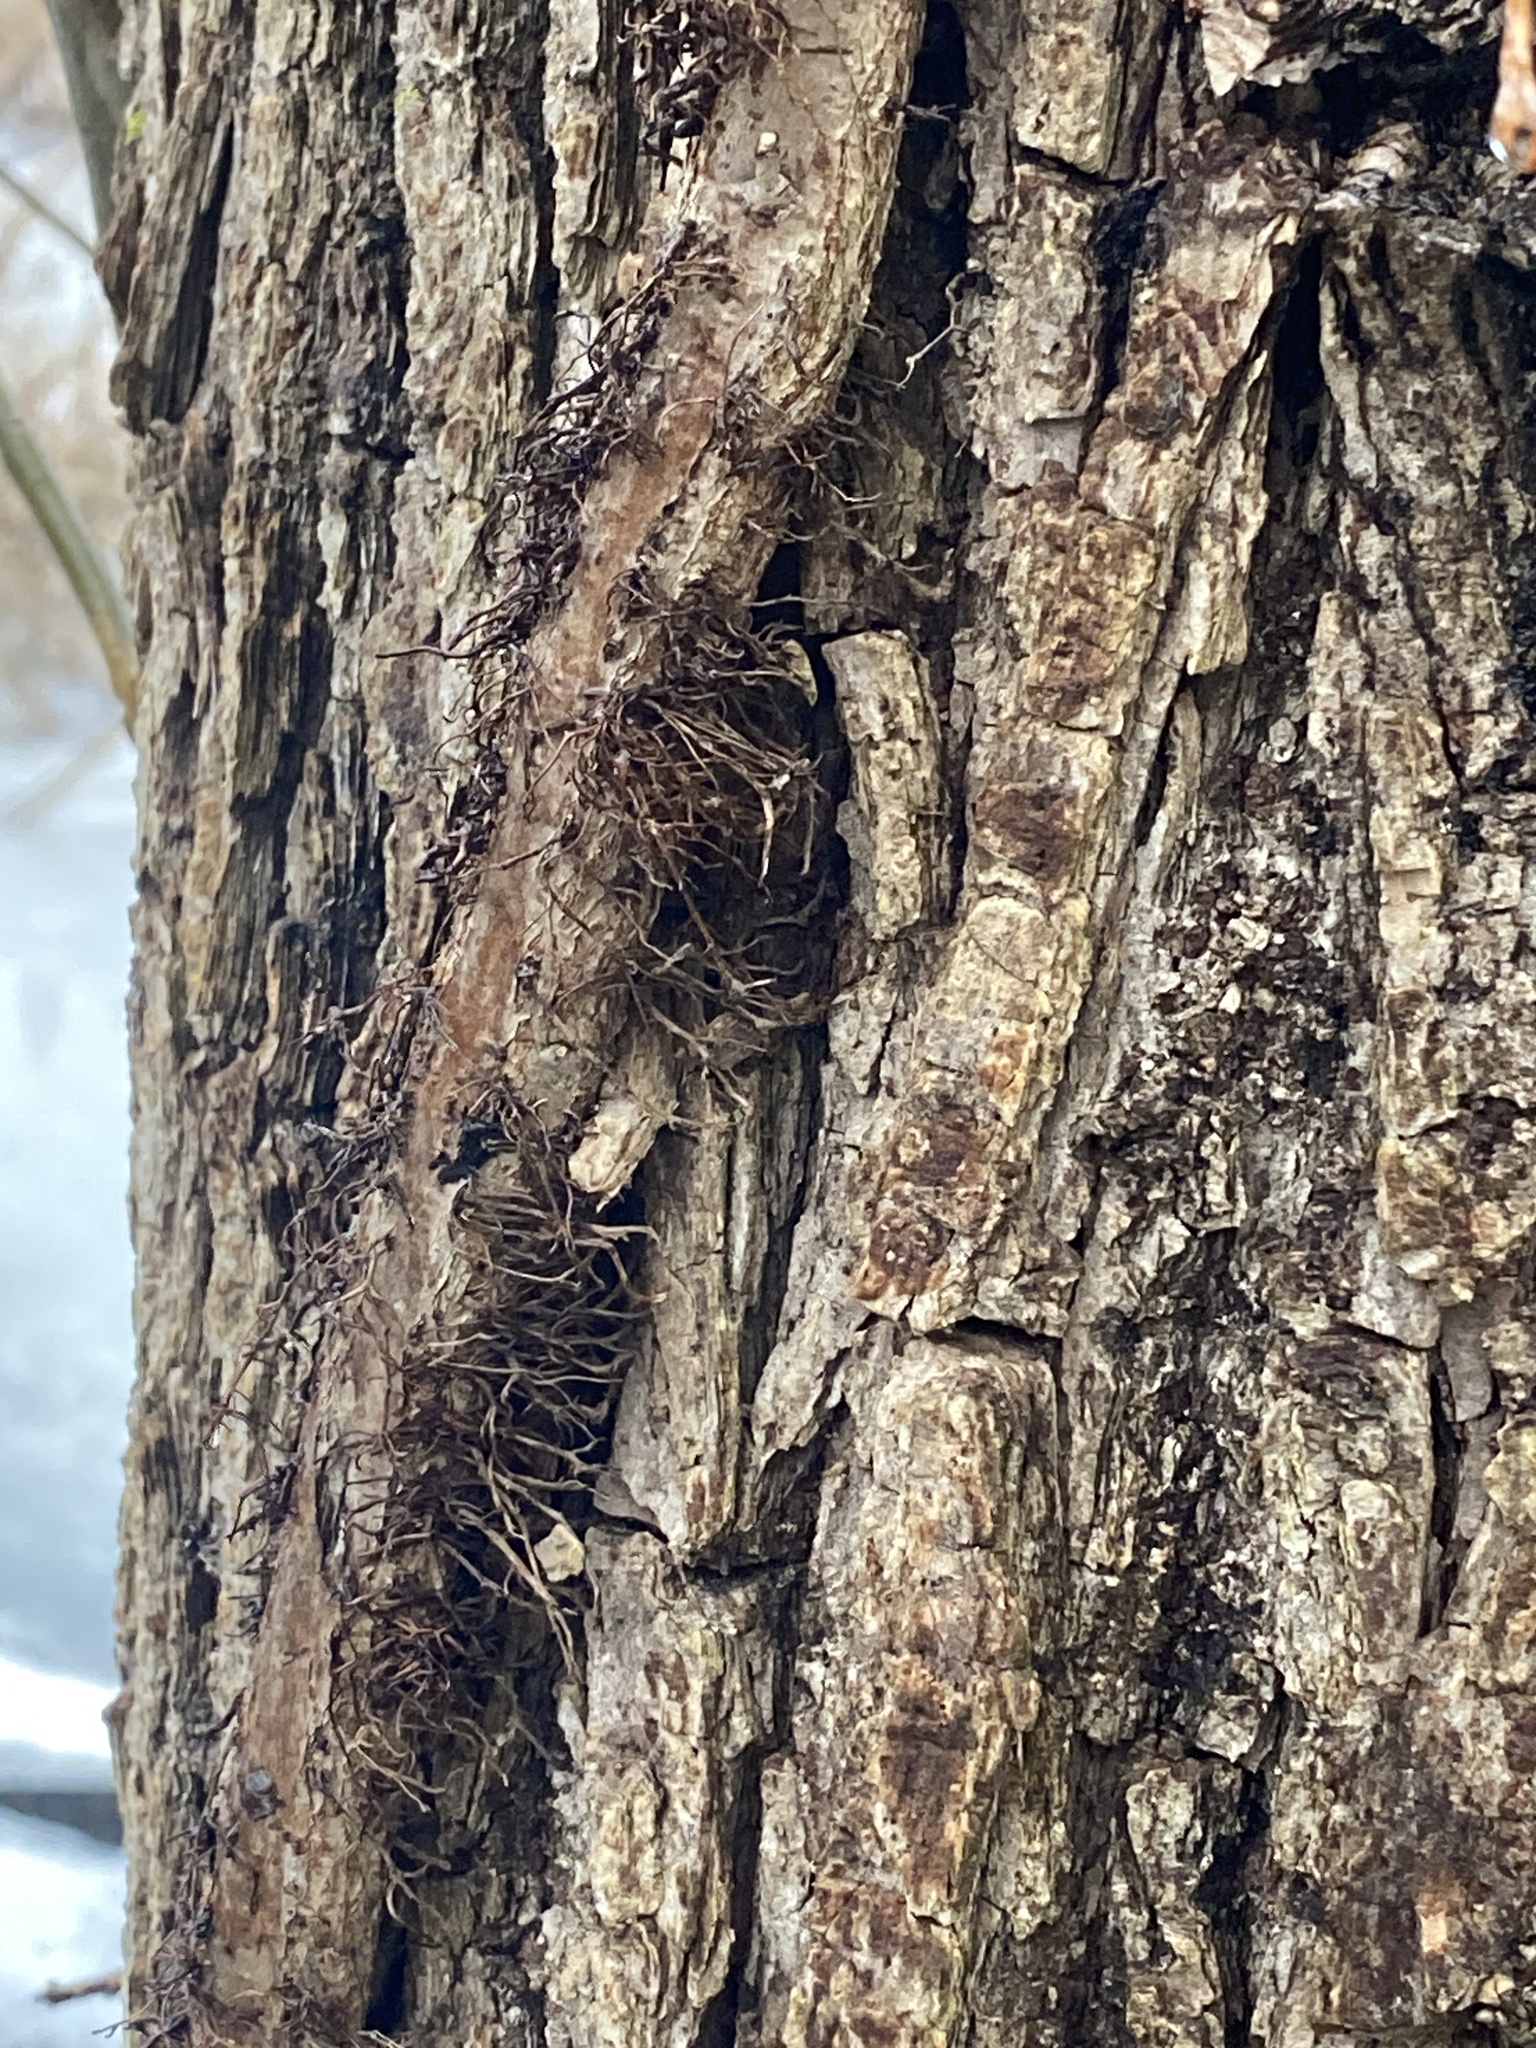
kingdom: Plantae
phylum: Tracheophyta
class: Magnoliopsida
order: Sapindales
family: Anacardiaceae
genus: Toxicodendron
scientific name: Toxicodendron radicans
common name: Poison ivy
